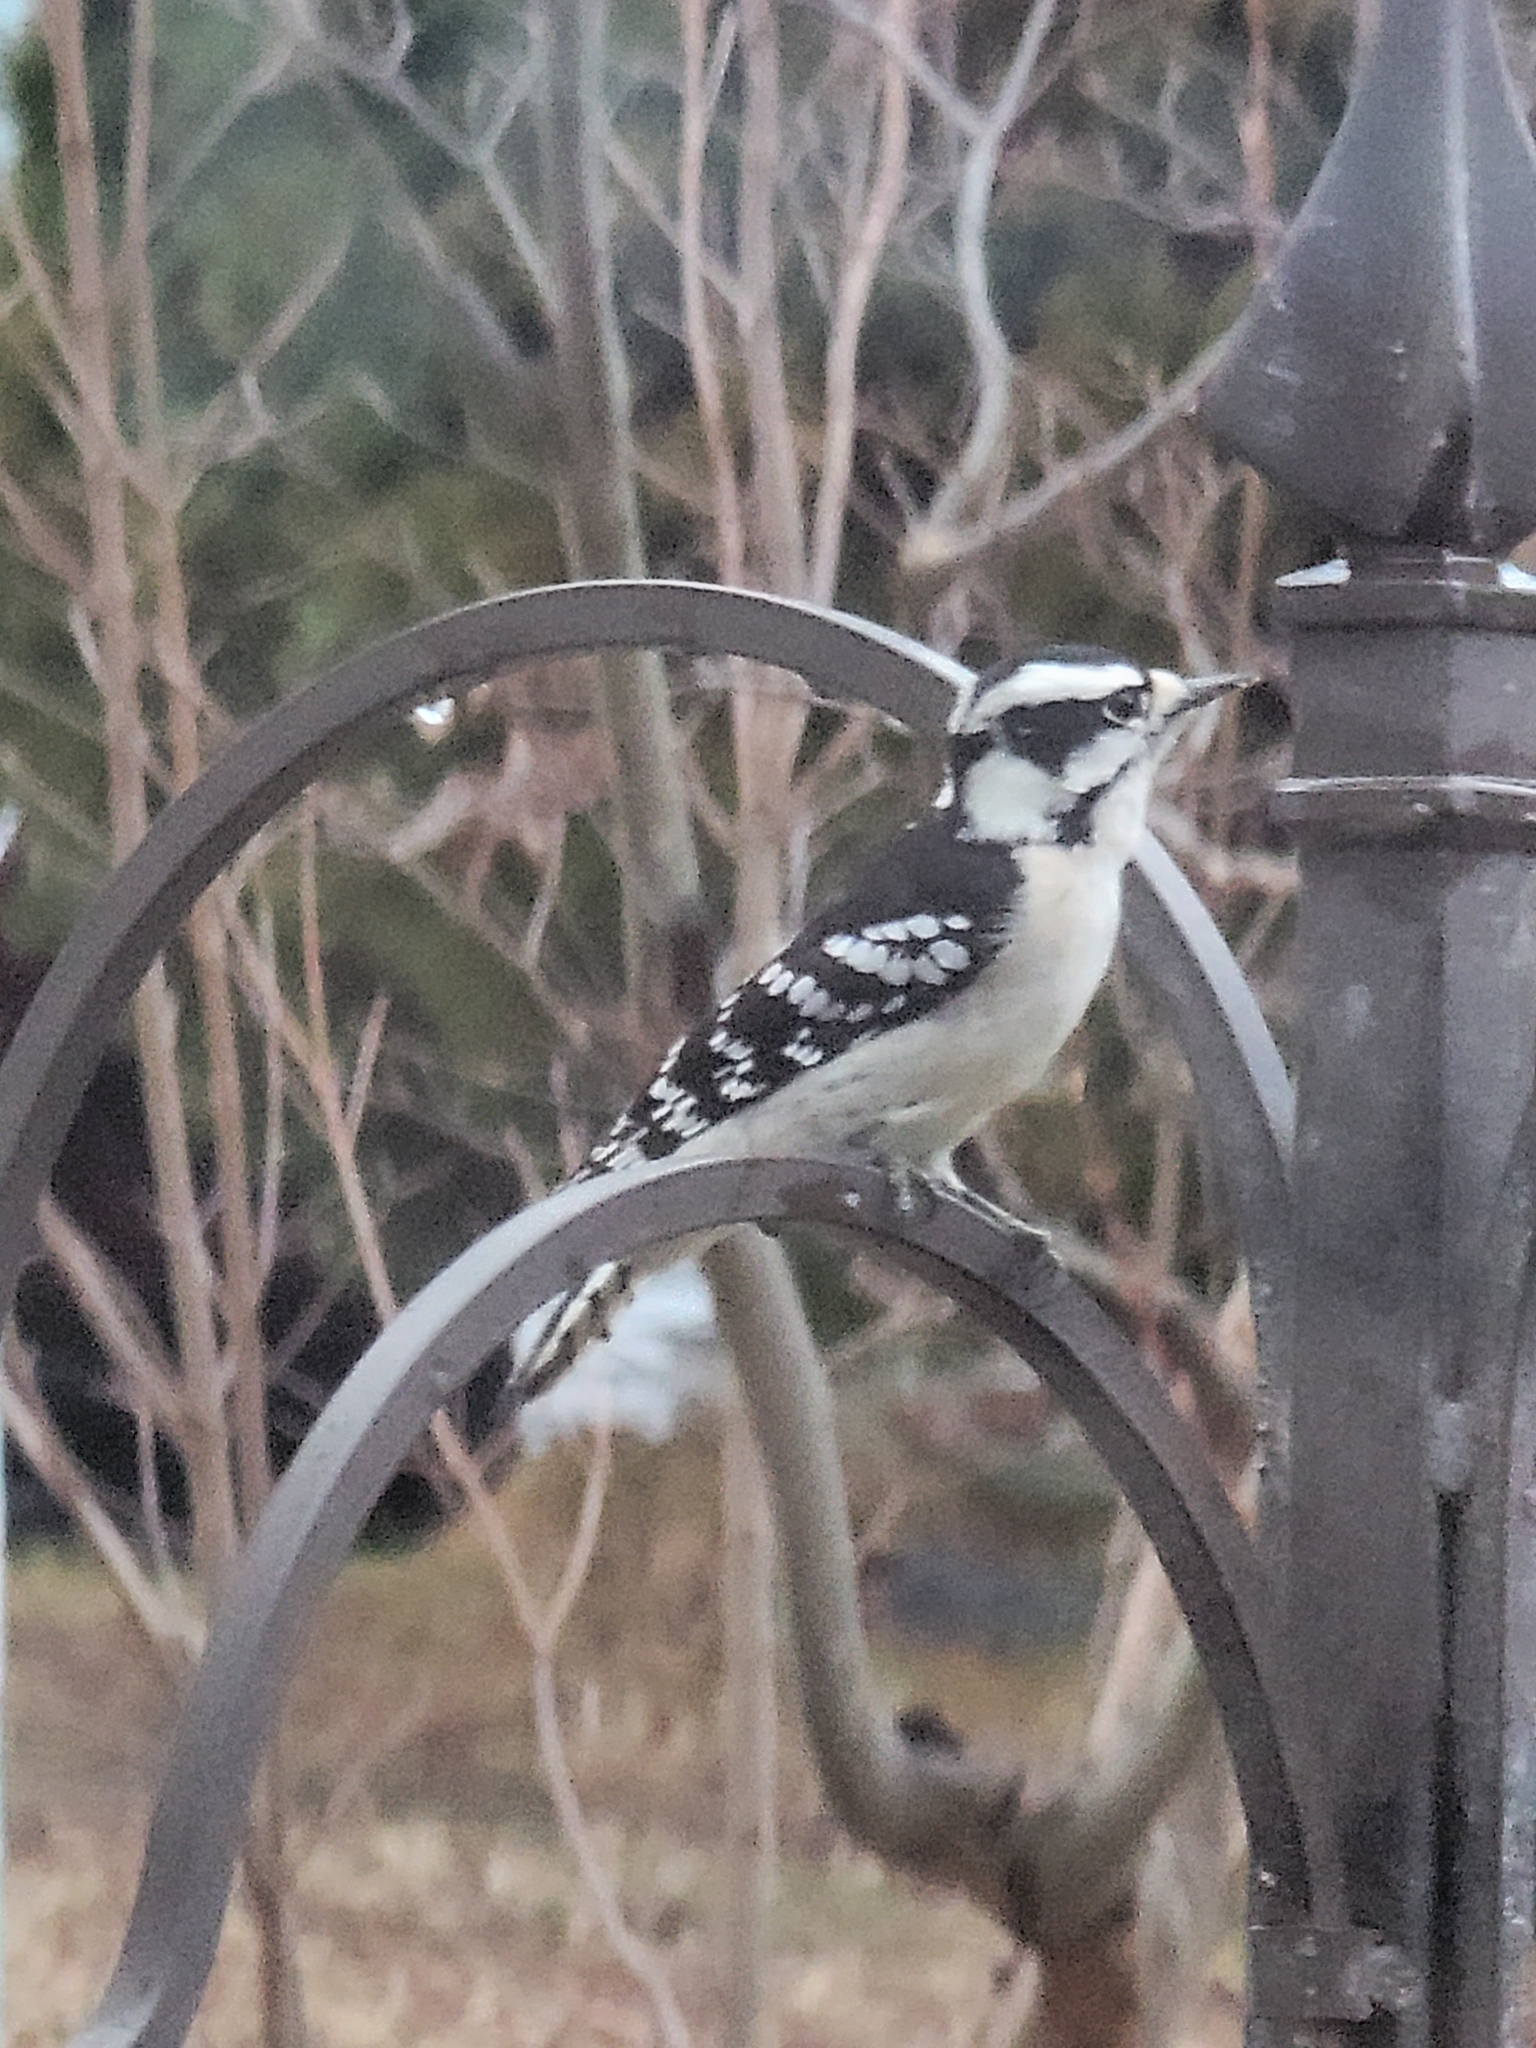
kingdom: Animalia
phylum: Chordata
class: Aves
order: Piciformes
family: Picidae
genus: Dryobates
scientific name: Dryobates pubescens
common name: Downy woodpecker
